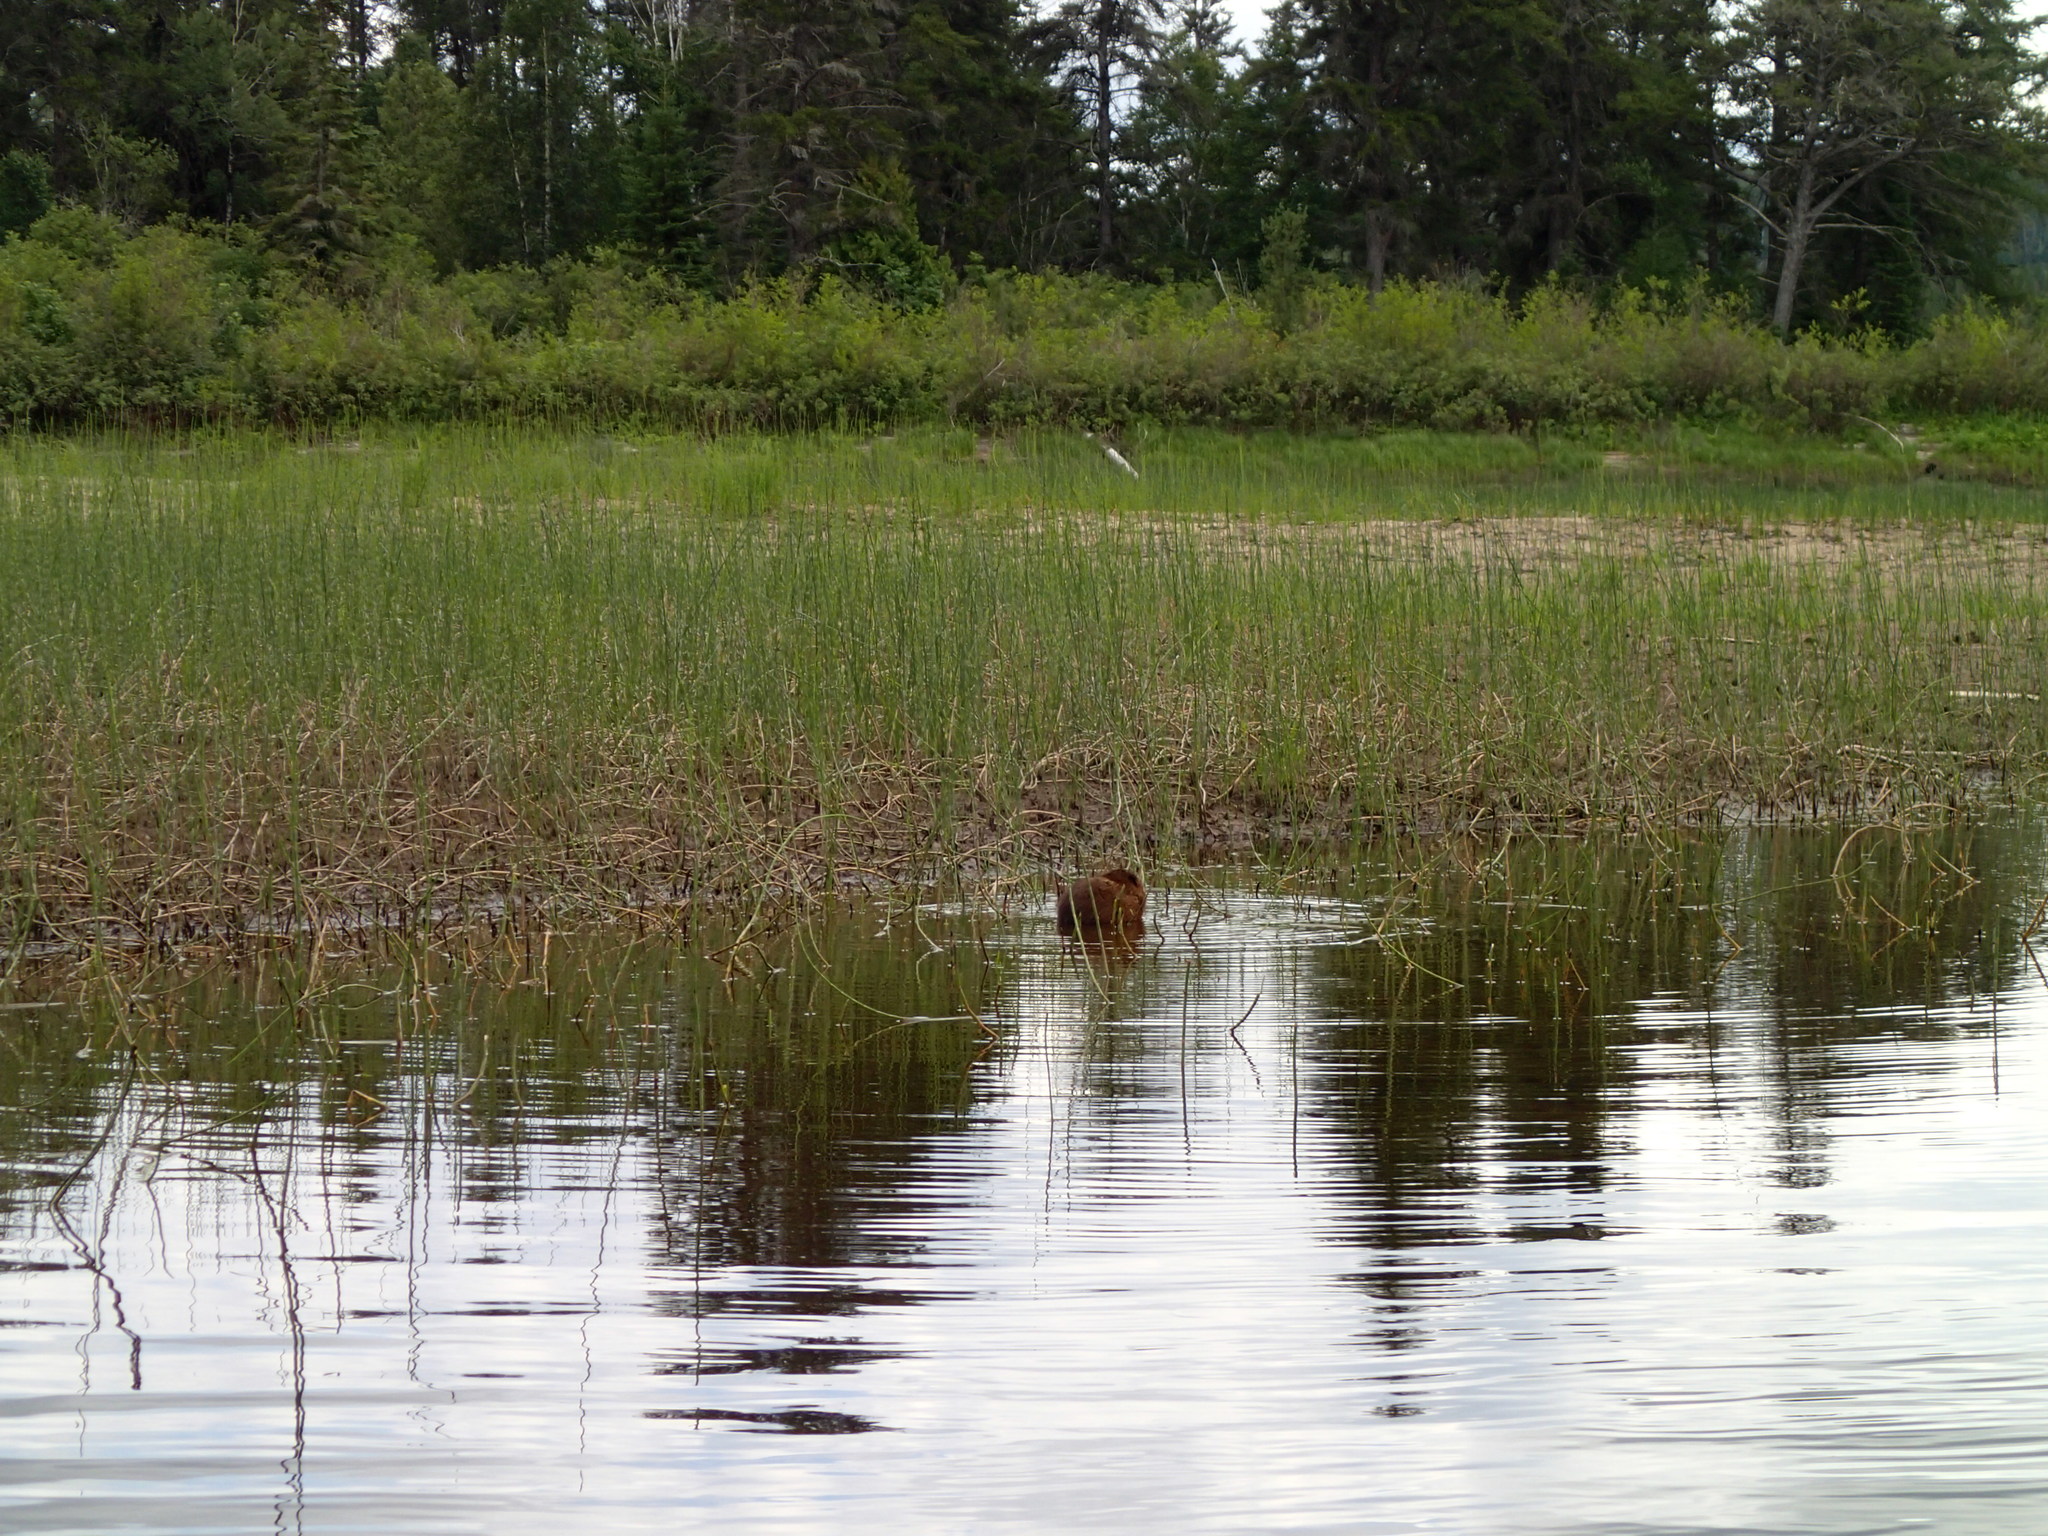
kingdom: Animalia
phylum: Chordata
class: Mammalia
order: Rodentia
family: Cricetidae
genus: Ondatra
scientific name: Ondatra zibethicus
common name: Muskrat
